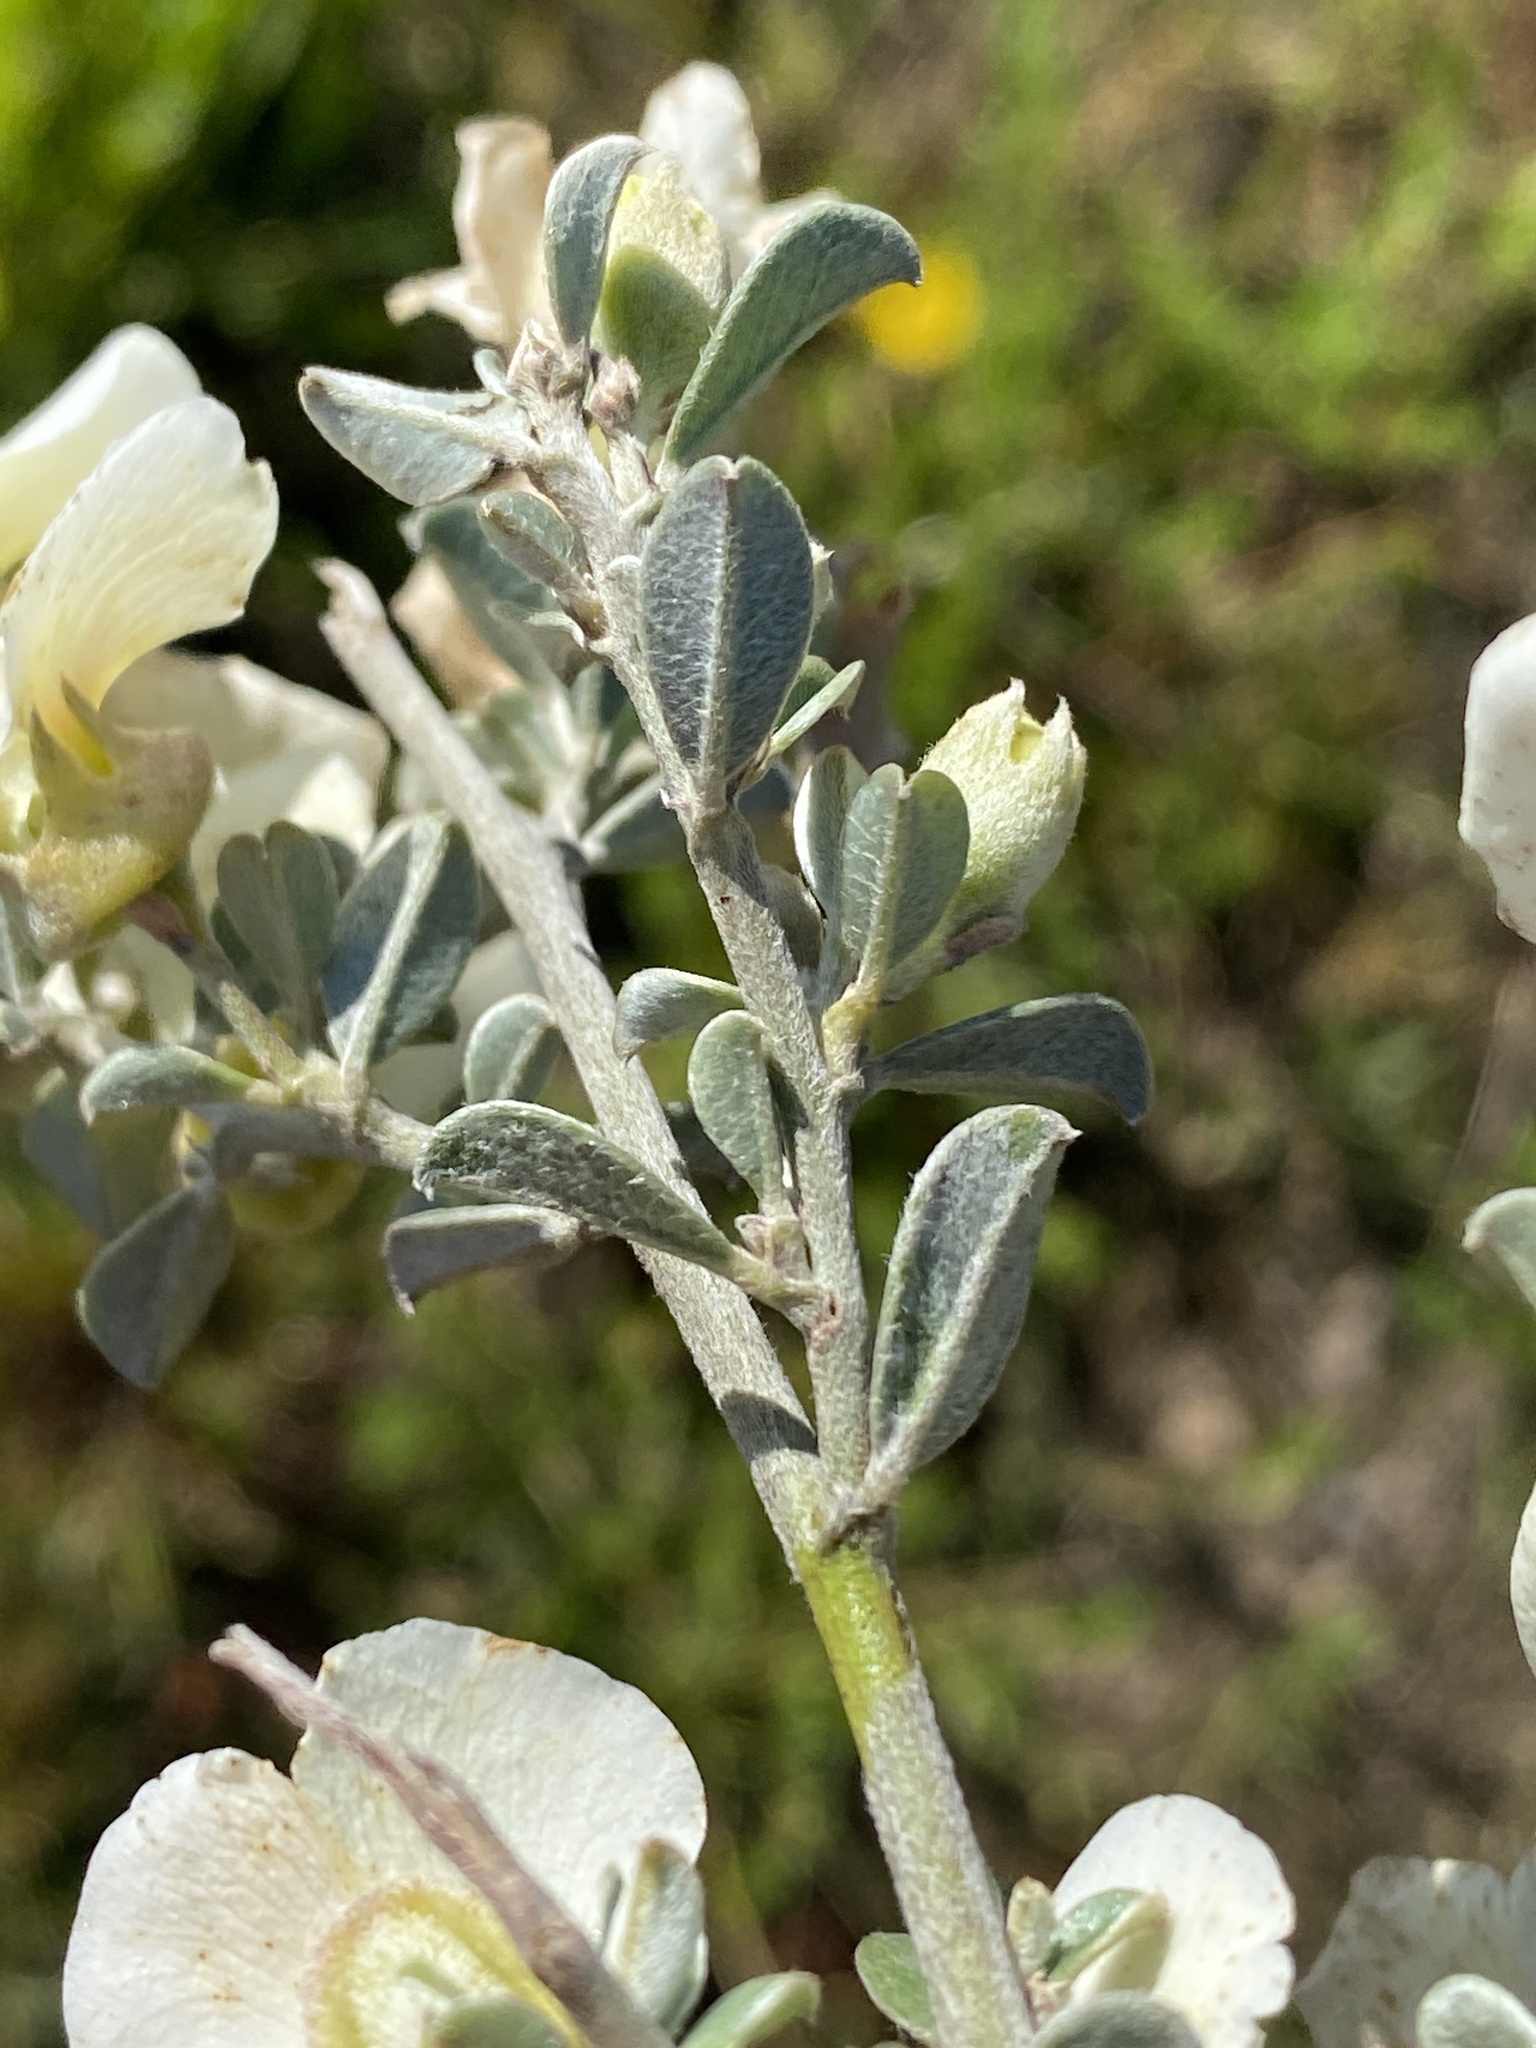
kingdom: Plantae
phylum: Tracheophyta
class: Magnoliopsida
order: Fabales
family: Fabaceae
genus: Podalyria
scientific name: Podalyria myrtillifolia
